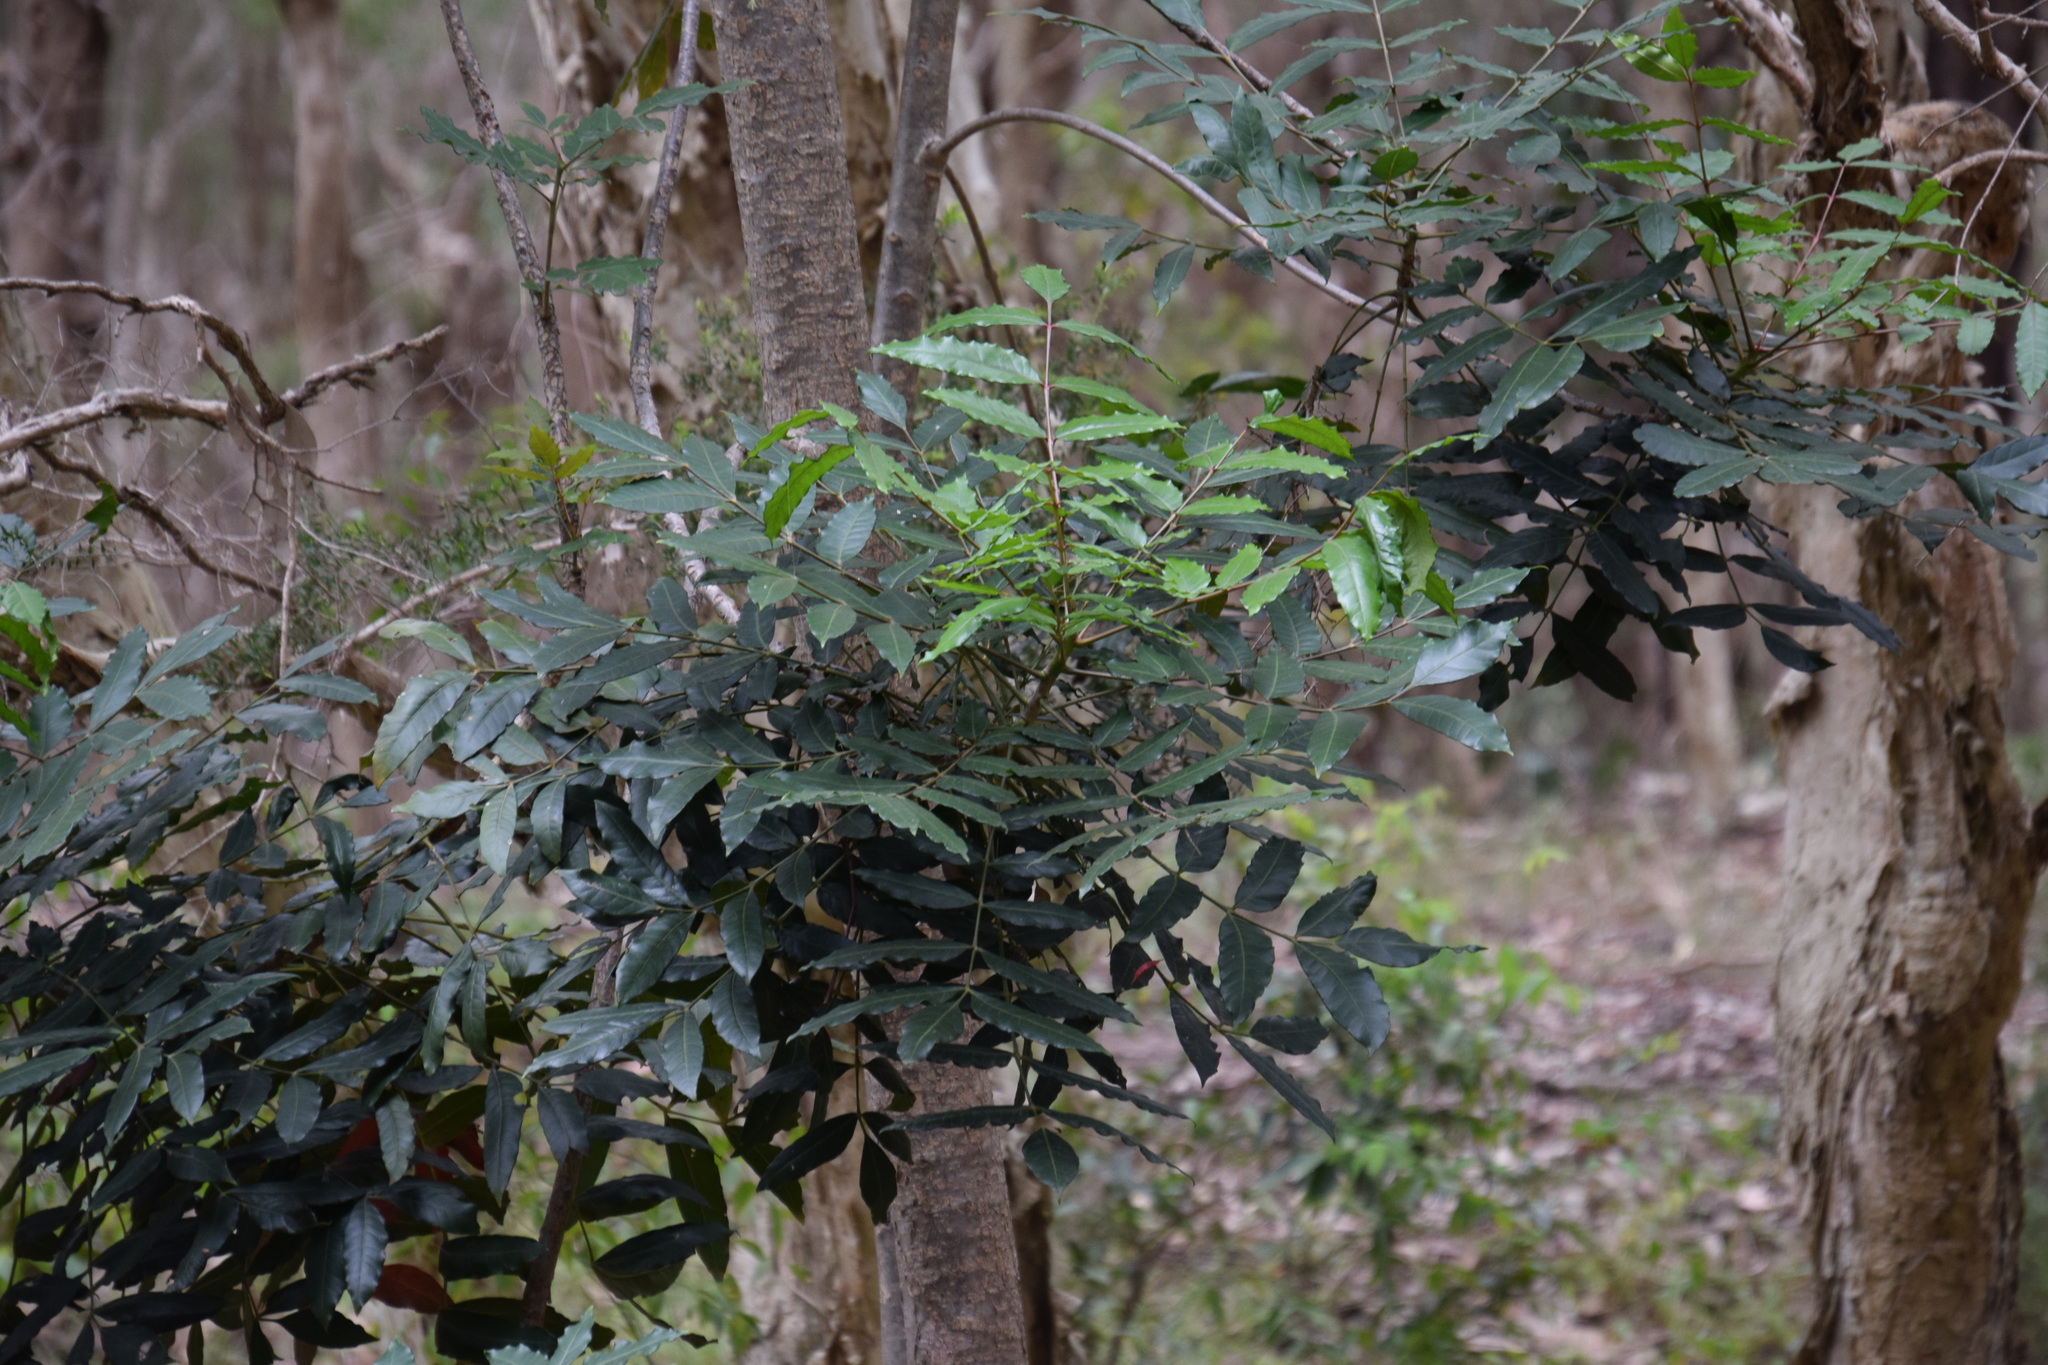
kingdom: Plantae
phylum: Tracheophyta
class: Magnoliopsida
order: Sapindales
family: Anacardiaceae
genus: Harpephyllum
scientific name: Harpephyllum caffrum
